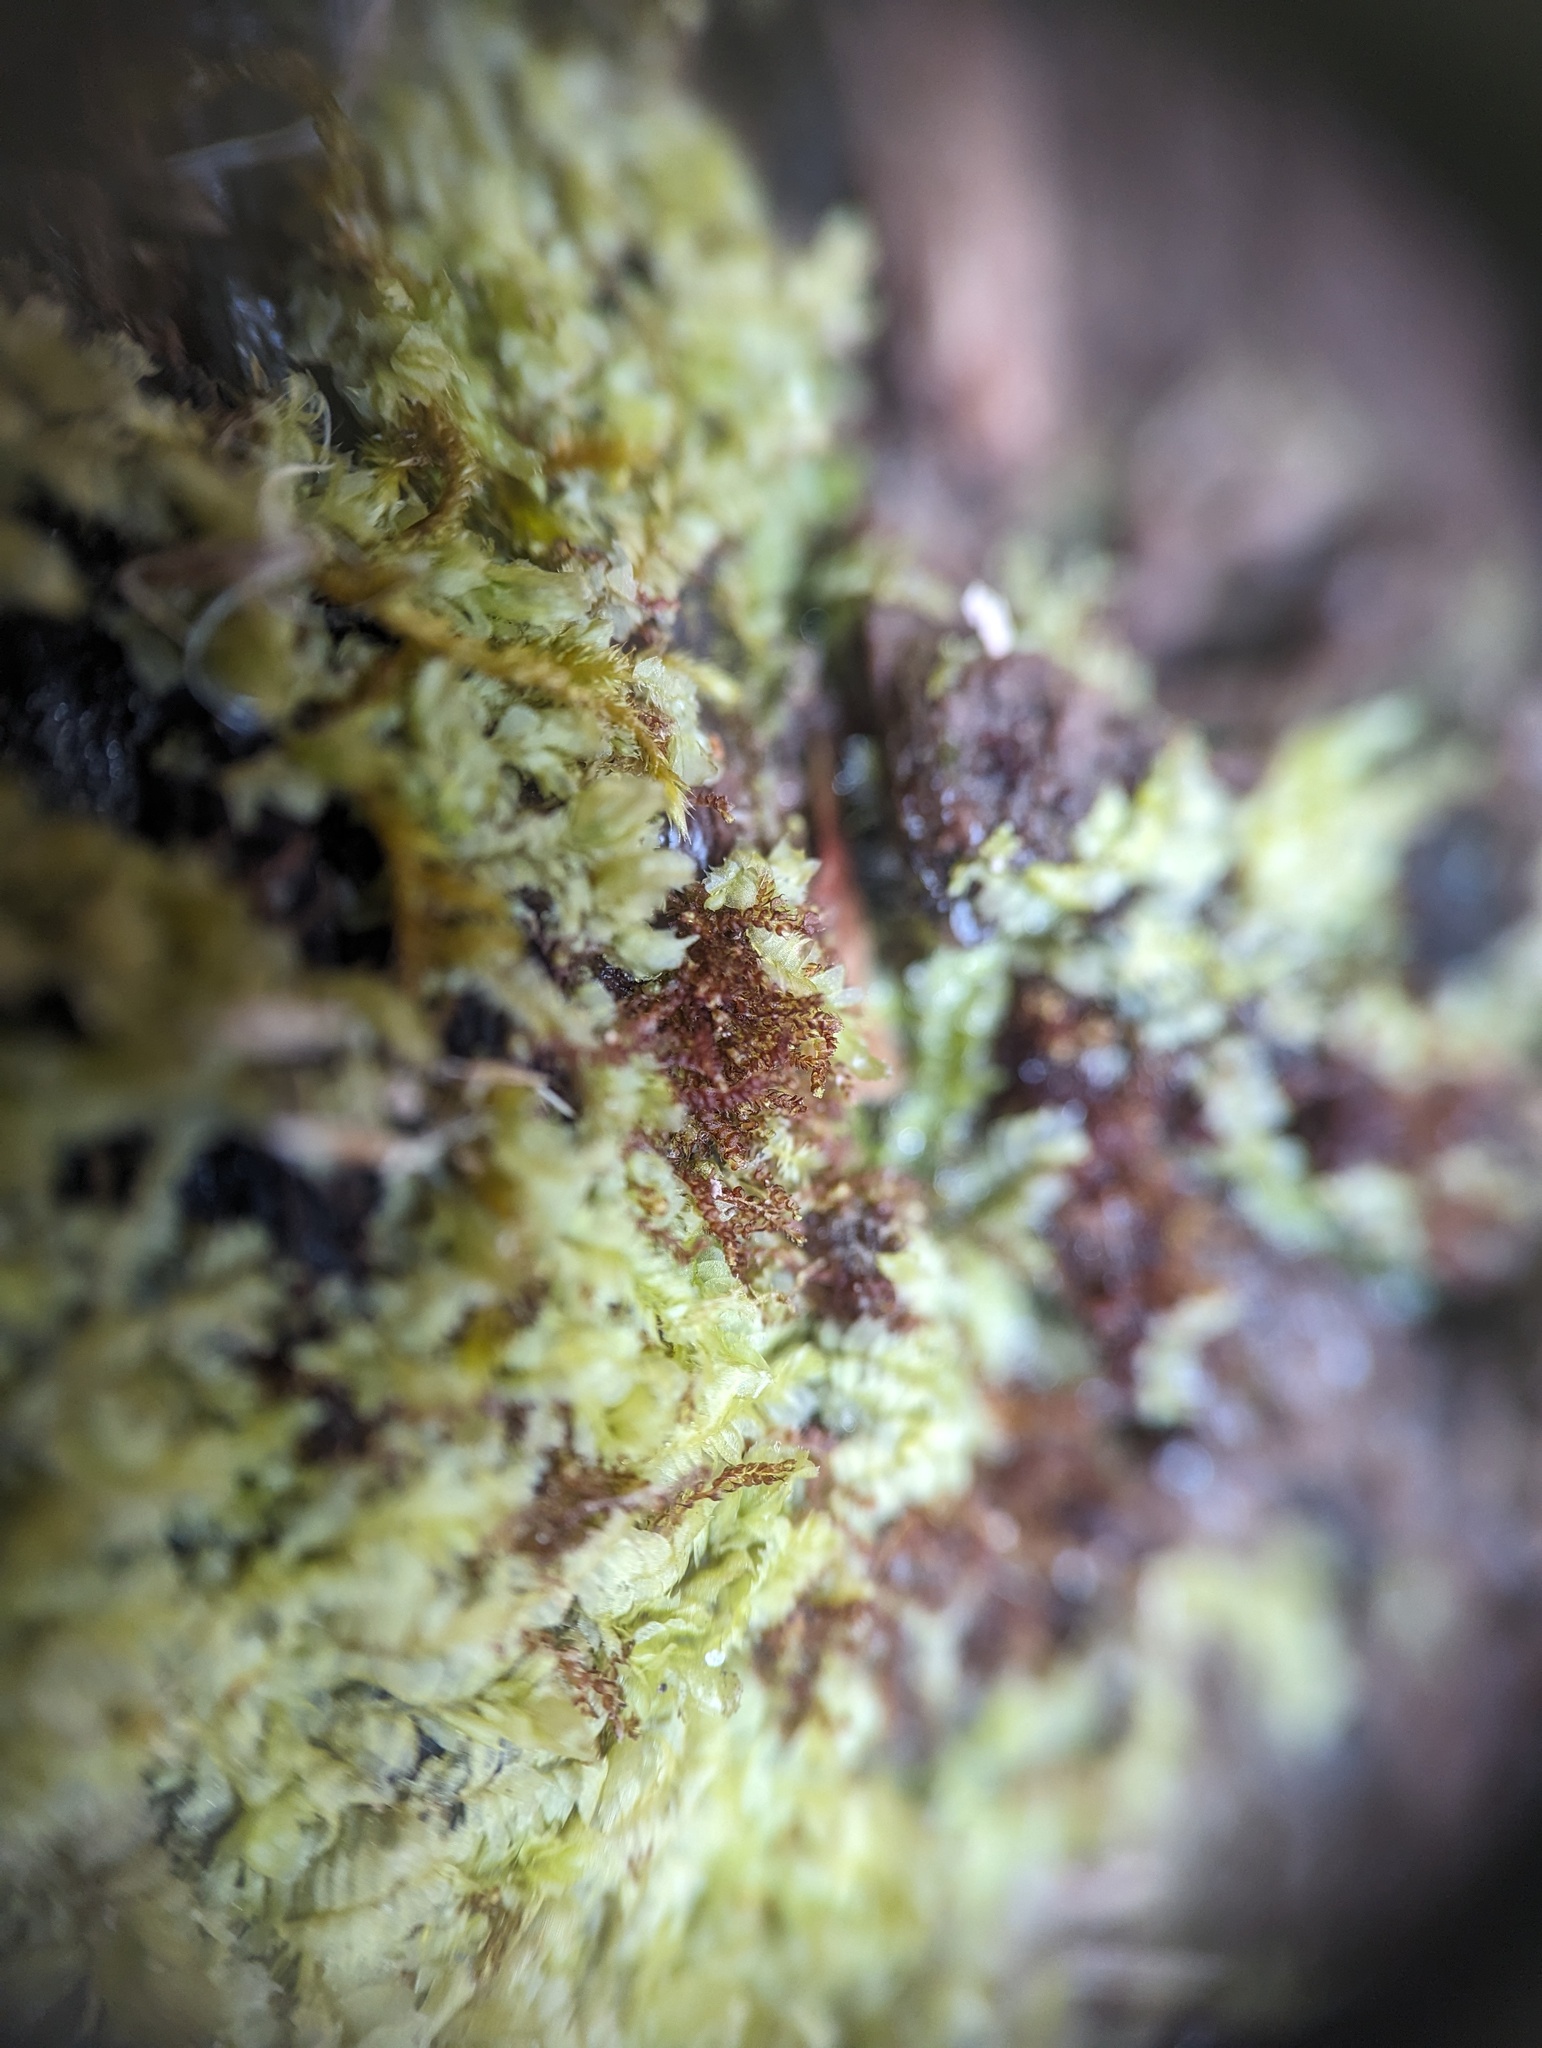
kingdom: Plantae
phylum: Marchantiophyta
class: Jungermanniopsida
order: Jungermanniales
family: Cephaloziaceae
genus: Nowellia
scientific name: Nowellia curvifolia
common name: Wood rustwort
